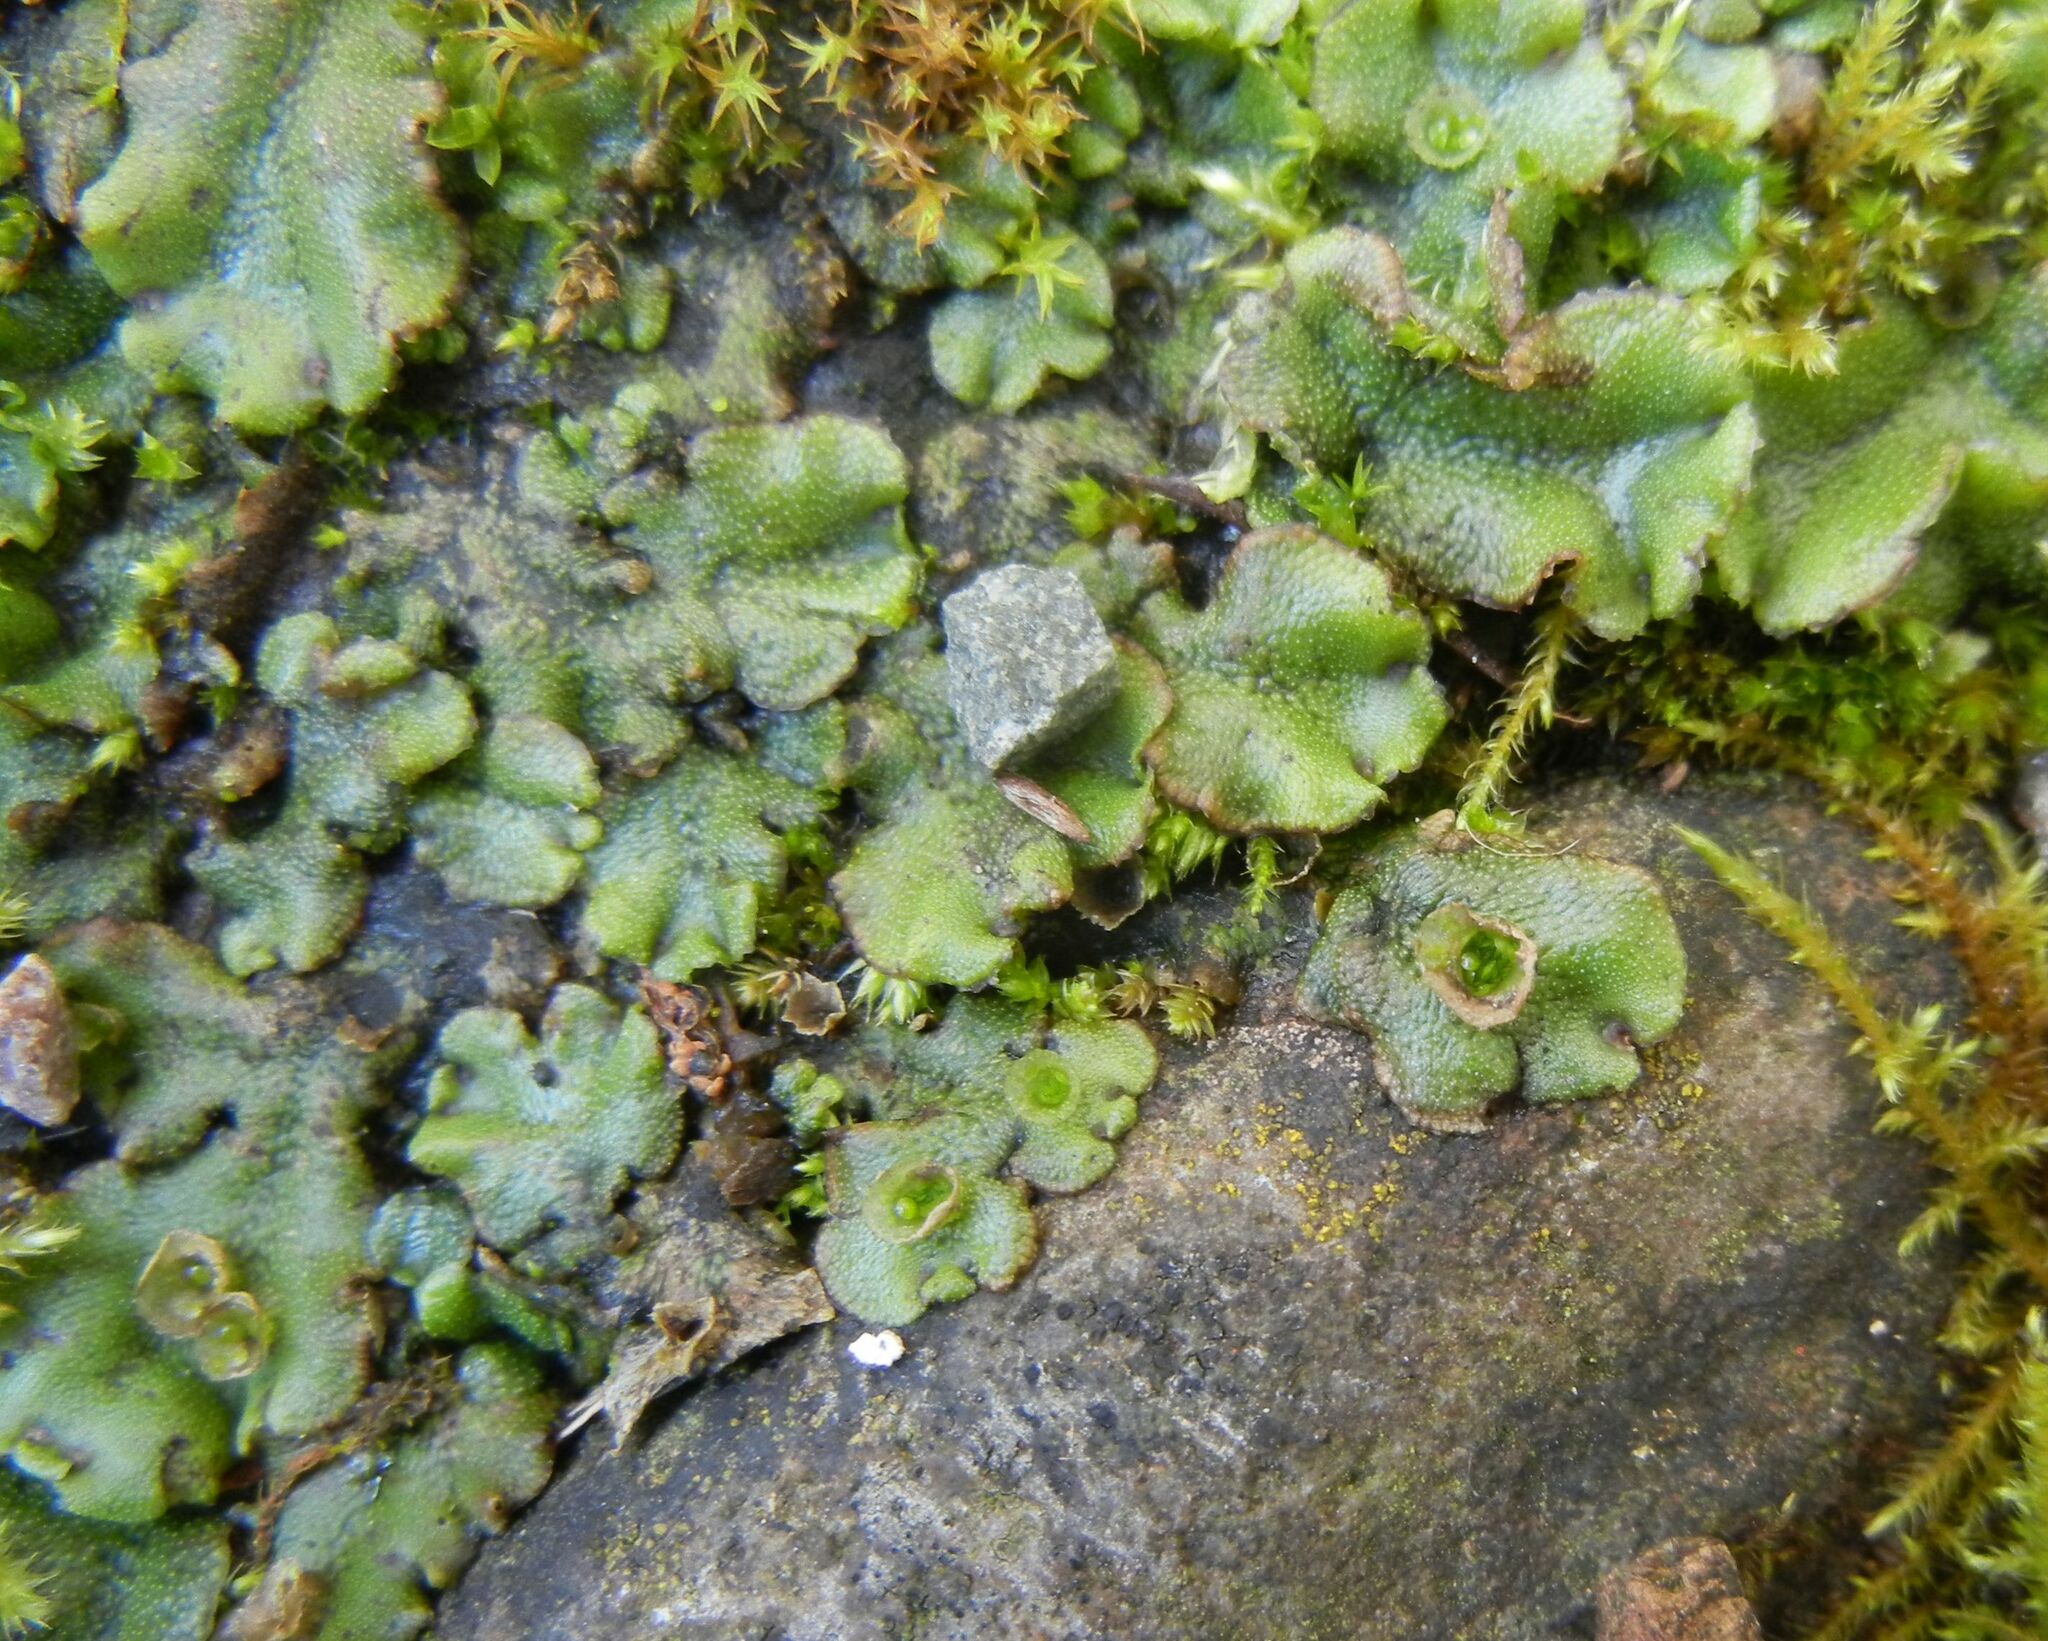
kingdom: Plantae
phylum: Marchantiophyta
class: Marchantiopsida
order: Marchantiales
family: Marchantiaceae
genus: Marchantia
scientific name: Marchantia polymorpha
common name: Common liverwort
